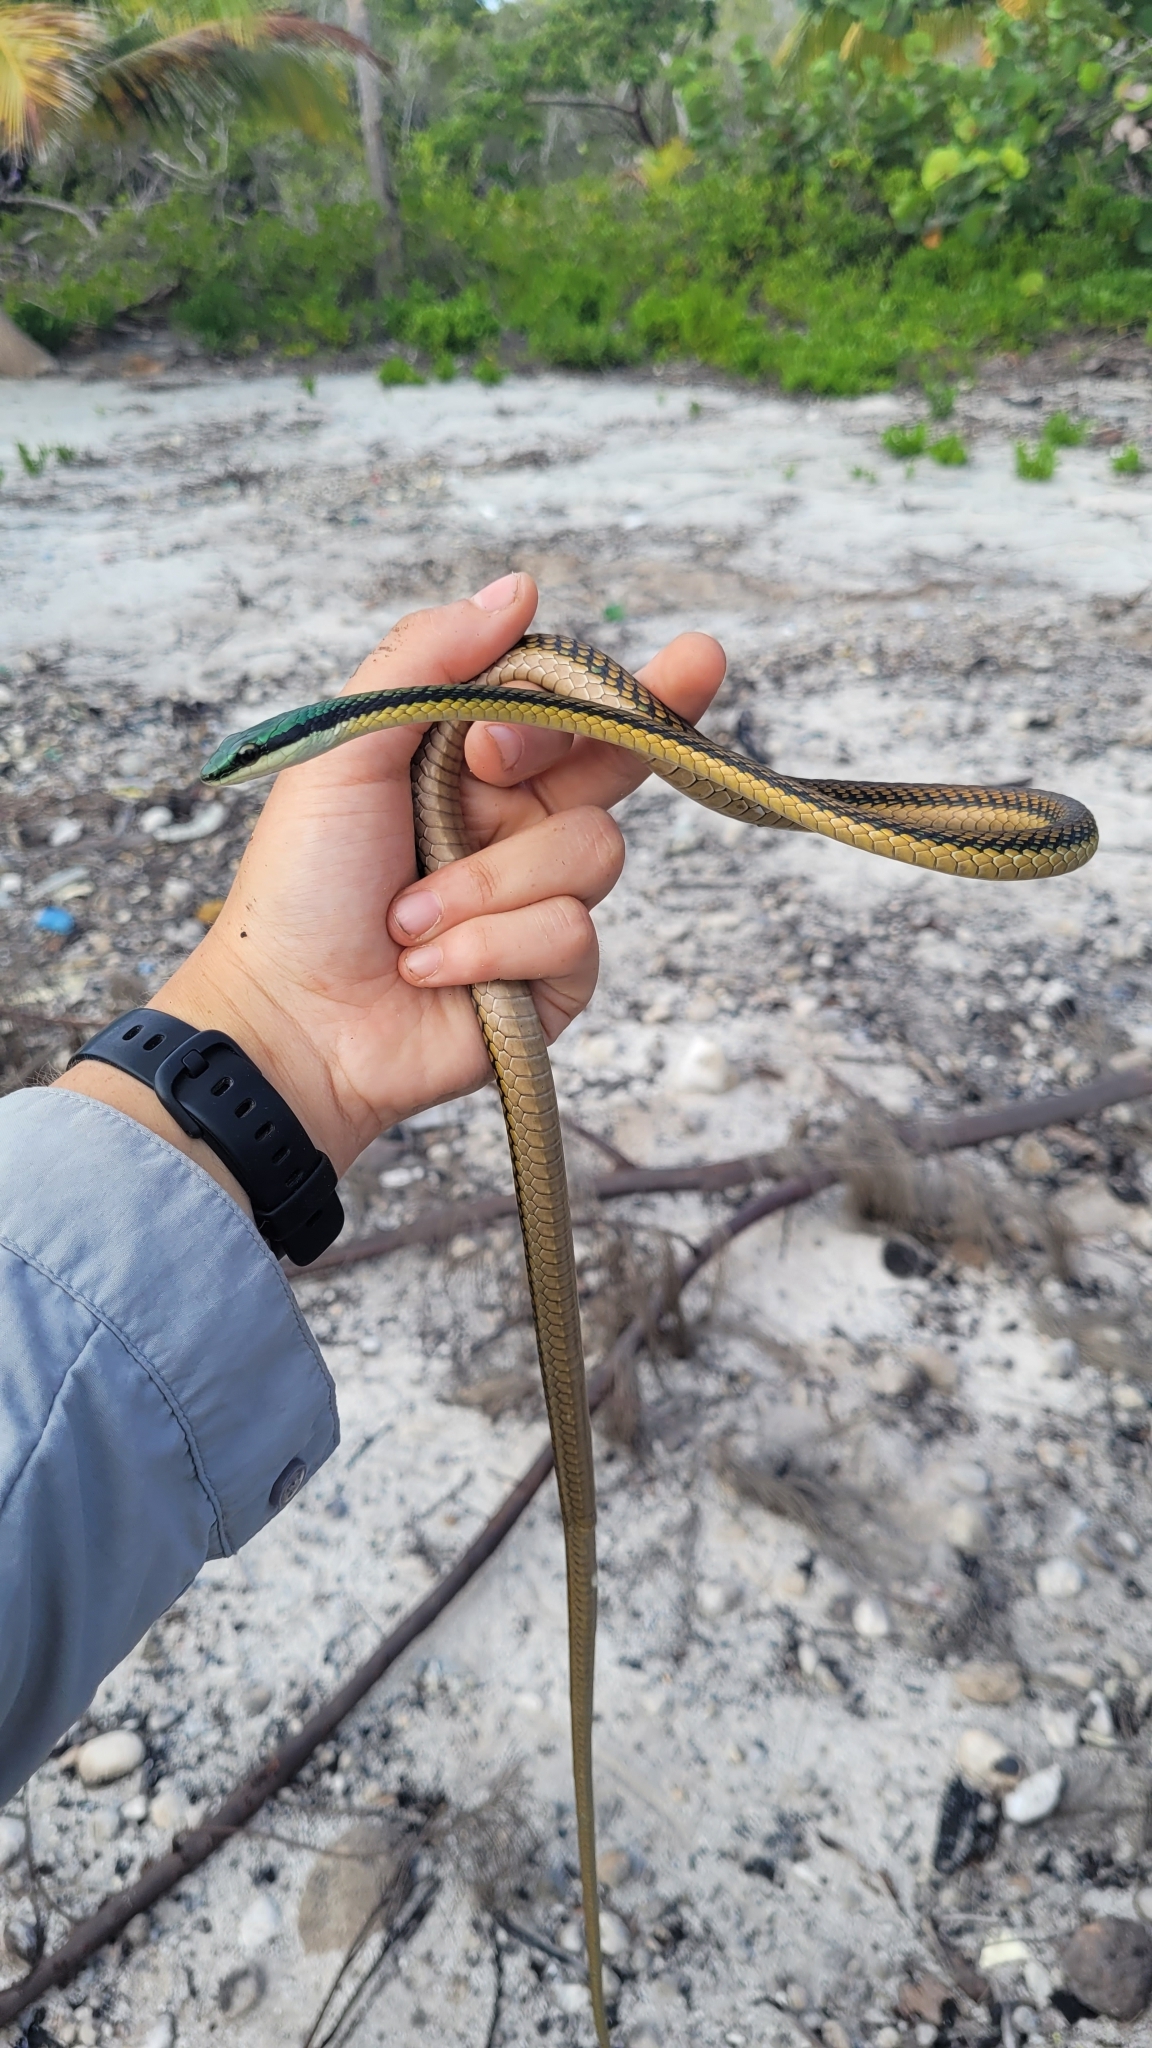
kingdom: Animalia
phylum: Chordata
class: Squamata
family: Colubridae
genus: Leptophis
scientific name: Leptophis mexicanus
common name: Mexican parrot snake
